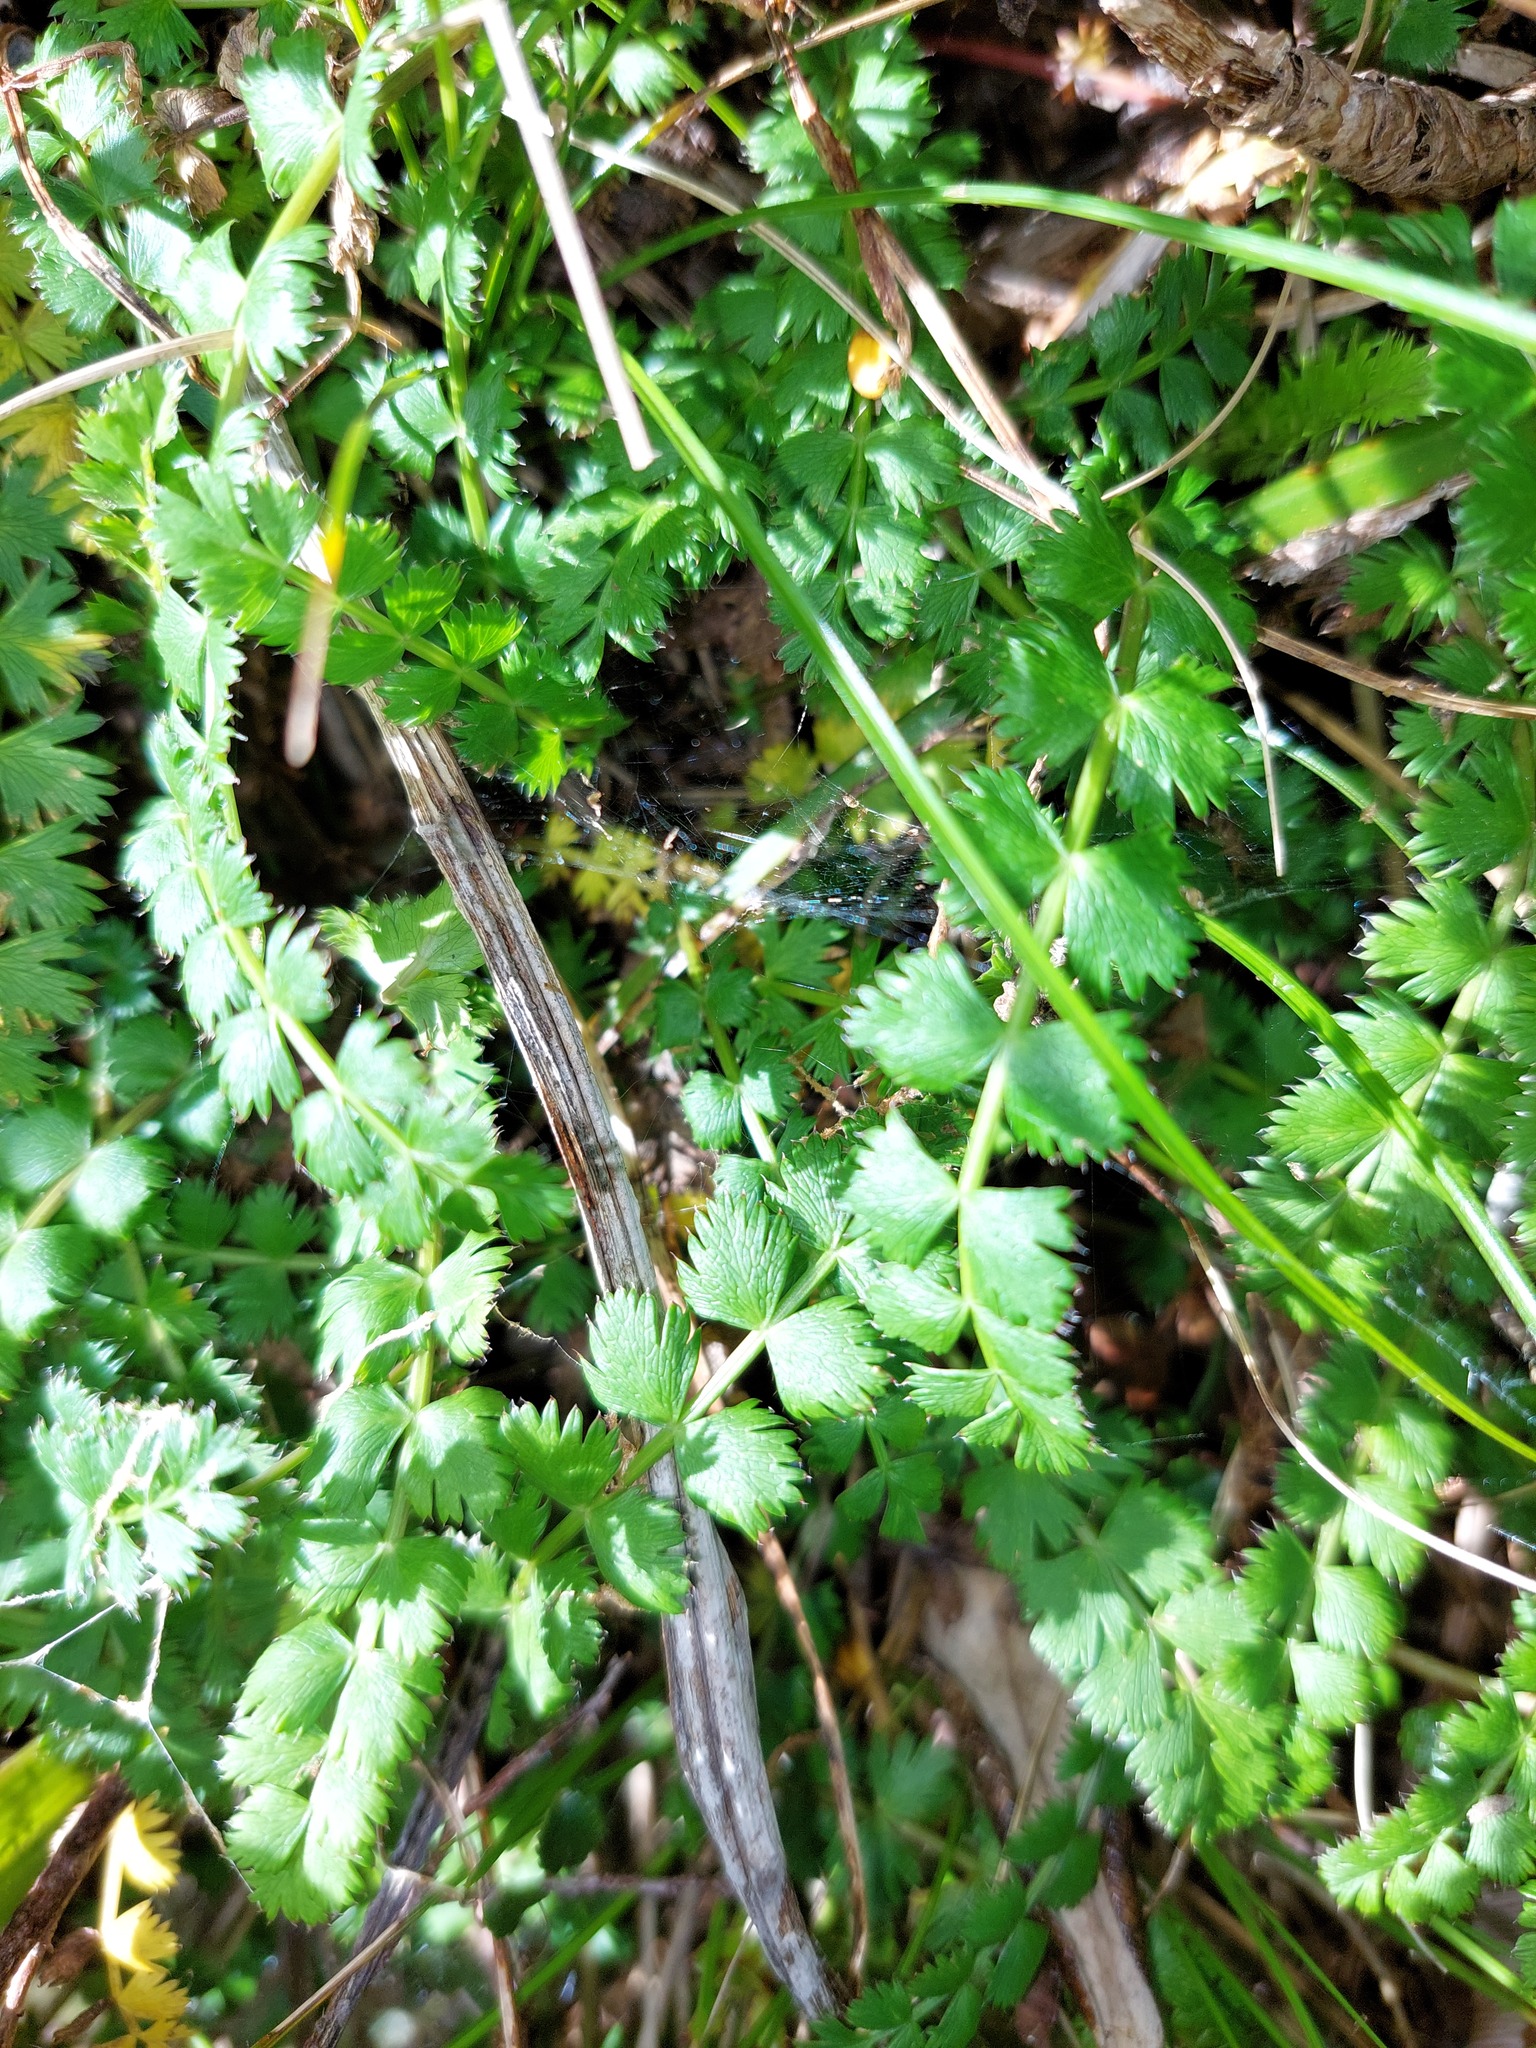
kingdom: Plantae
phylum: Tracheophyta
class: Magnoliopsida
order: Apiales
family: Apiaceae
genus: Anisotome
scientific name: Anisotome aromatica
